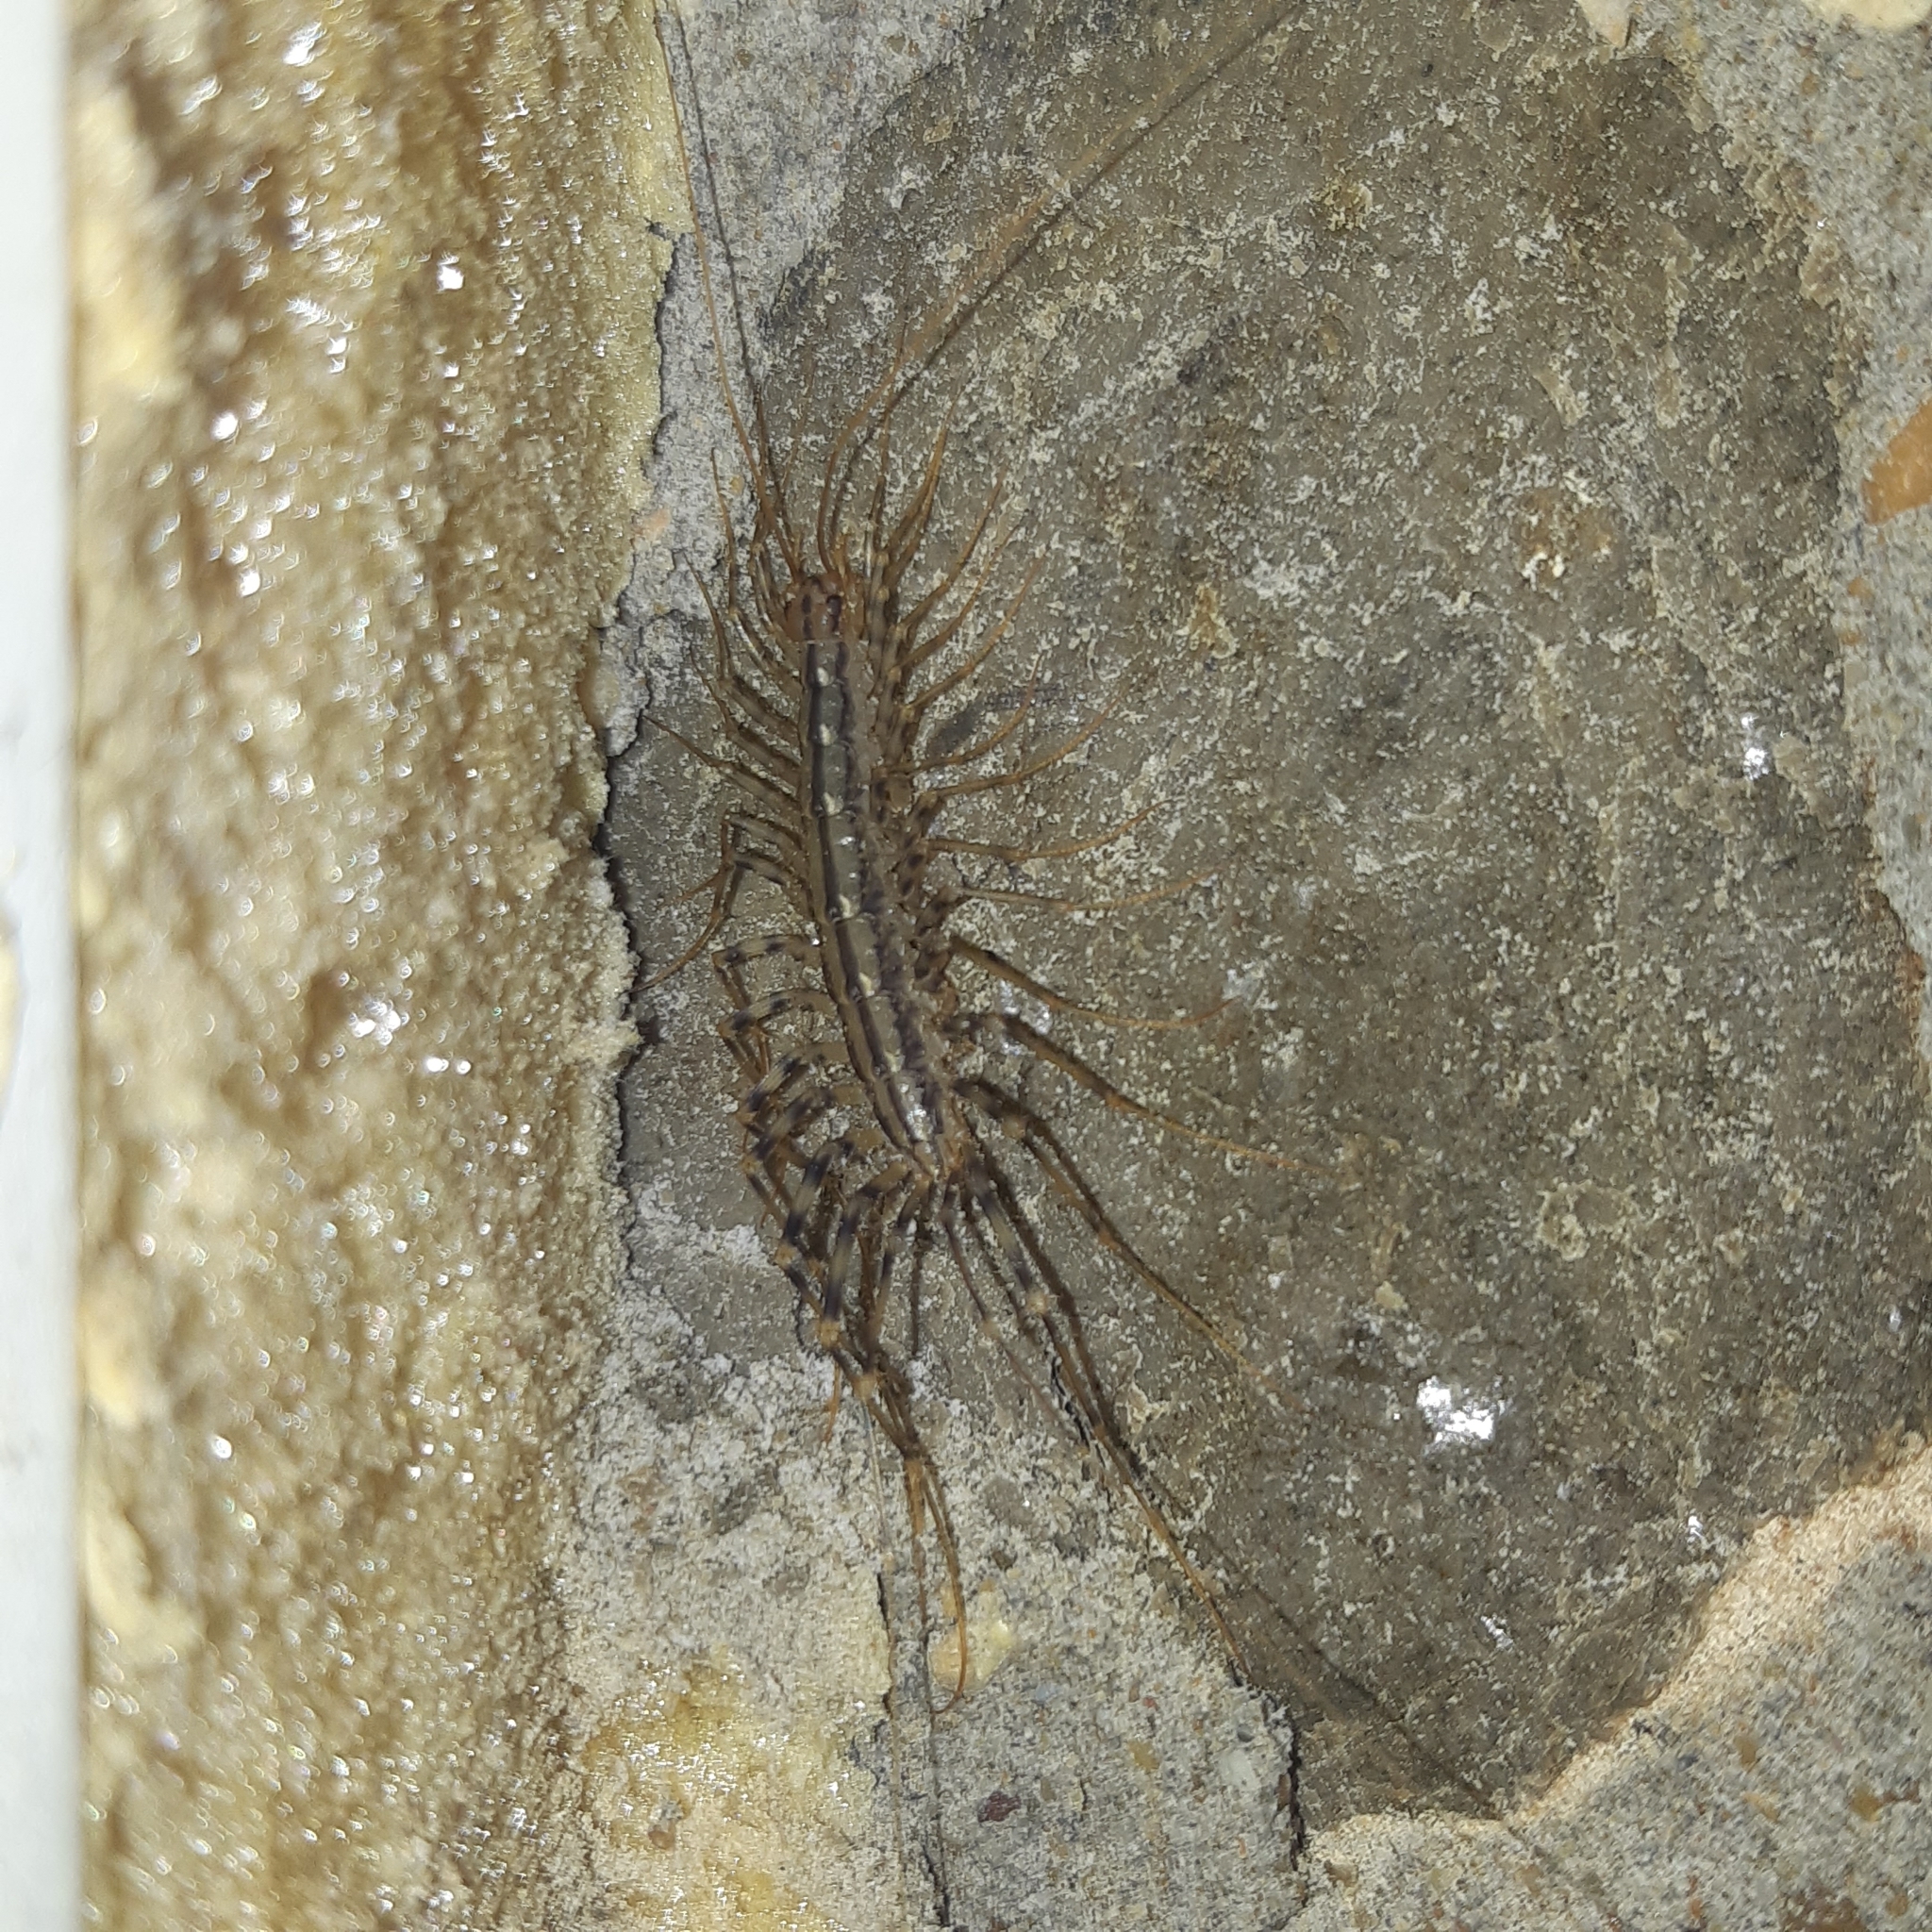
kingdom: Animalia
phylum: Arthropoda
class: Chilopoda
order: Scutigeromorpha
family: Scutigeridae
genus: Scutigera
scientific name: Scutigera coleoptrata
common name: House centipede
